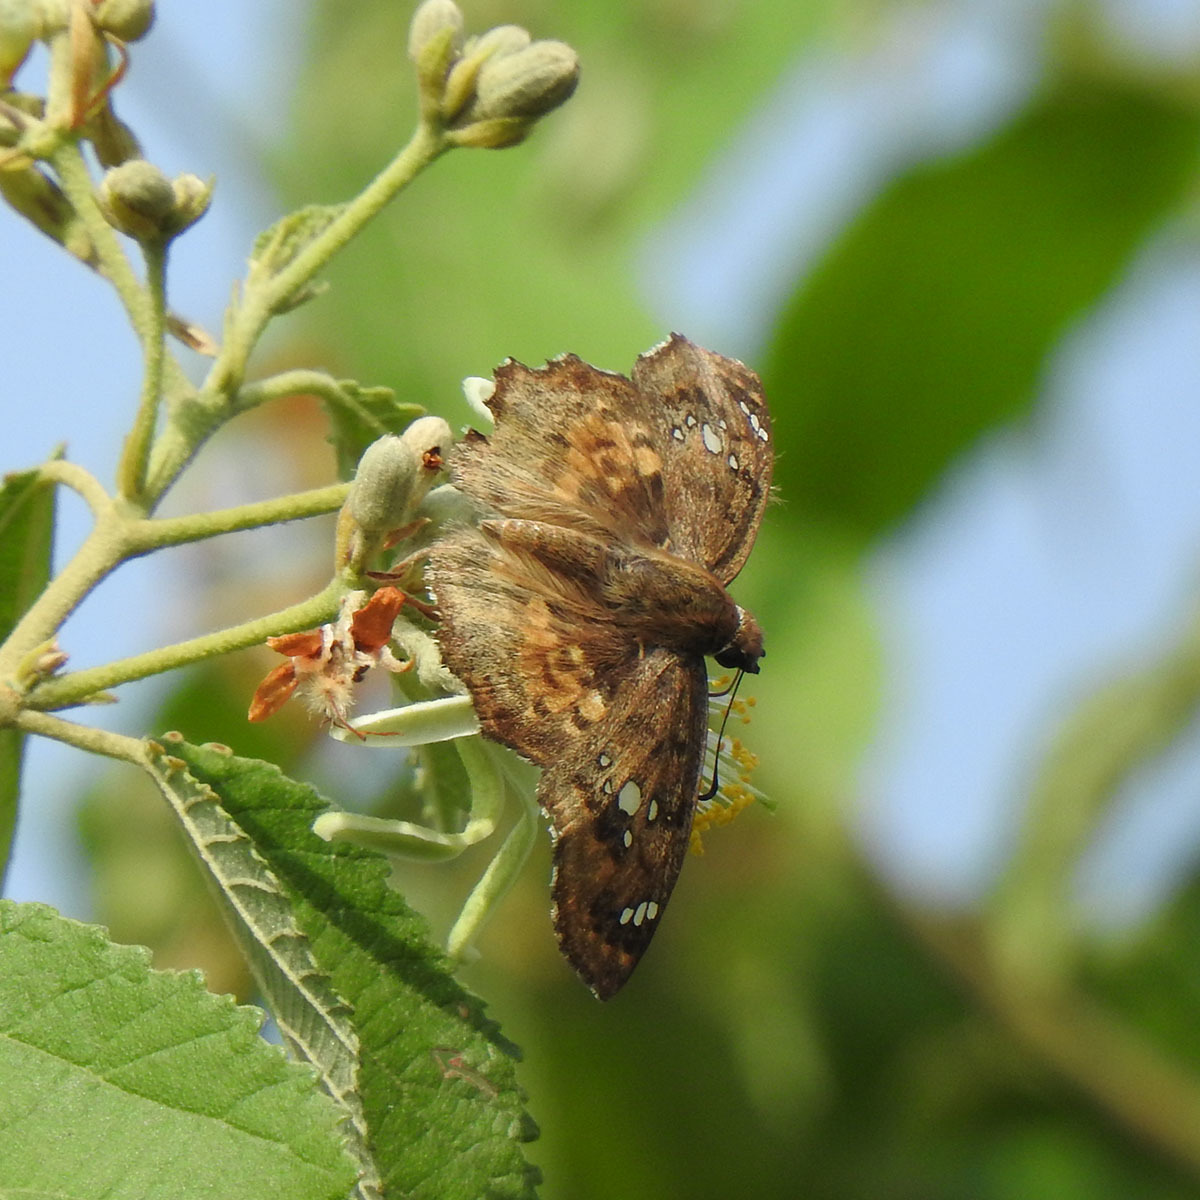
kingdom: Animalia
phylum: Arthropoda
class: Insecta
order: Lepidoptera
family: Hesperiidae
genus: Caprona
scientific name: Caprona ransonnettii
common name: Golden angle
